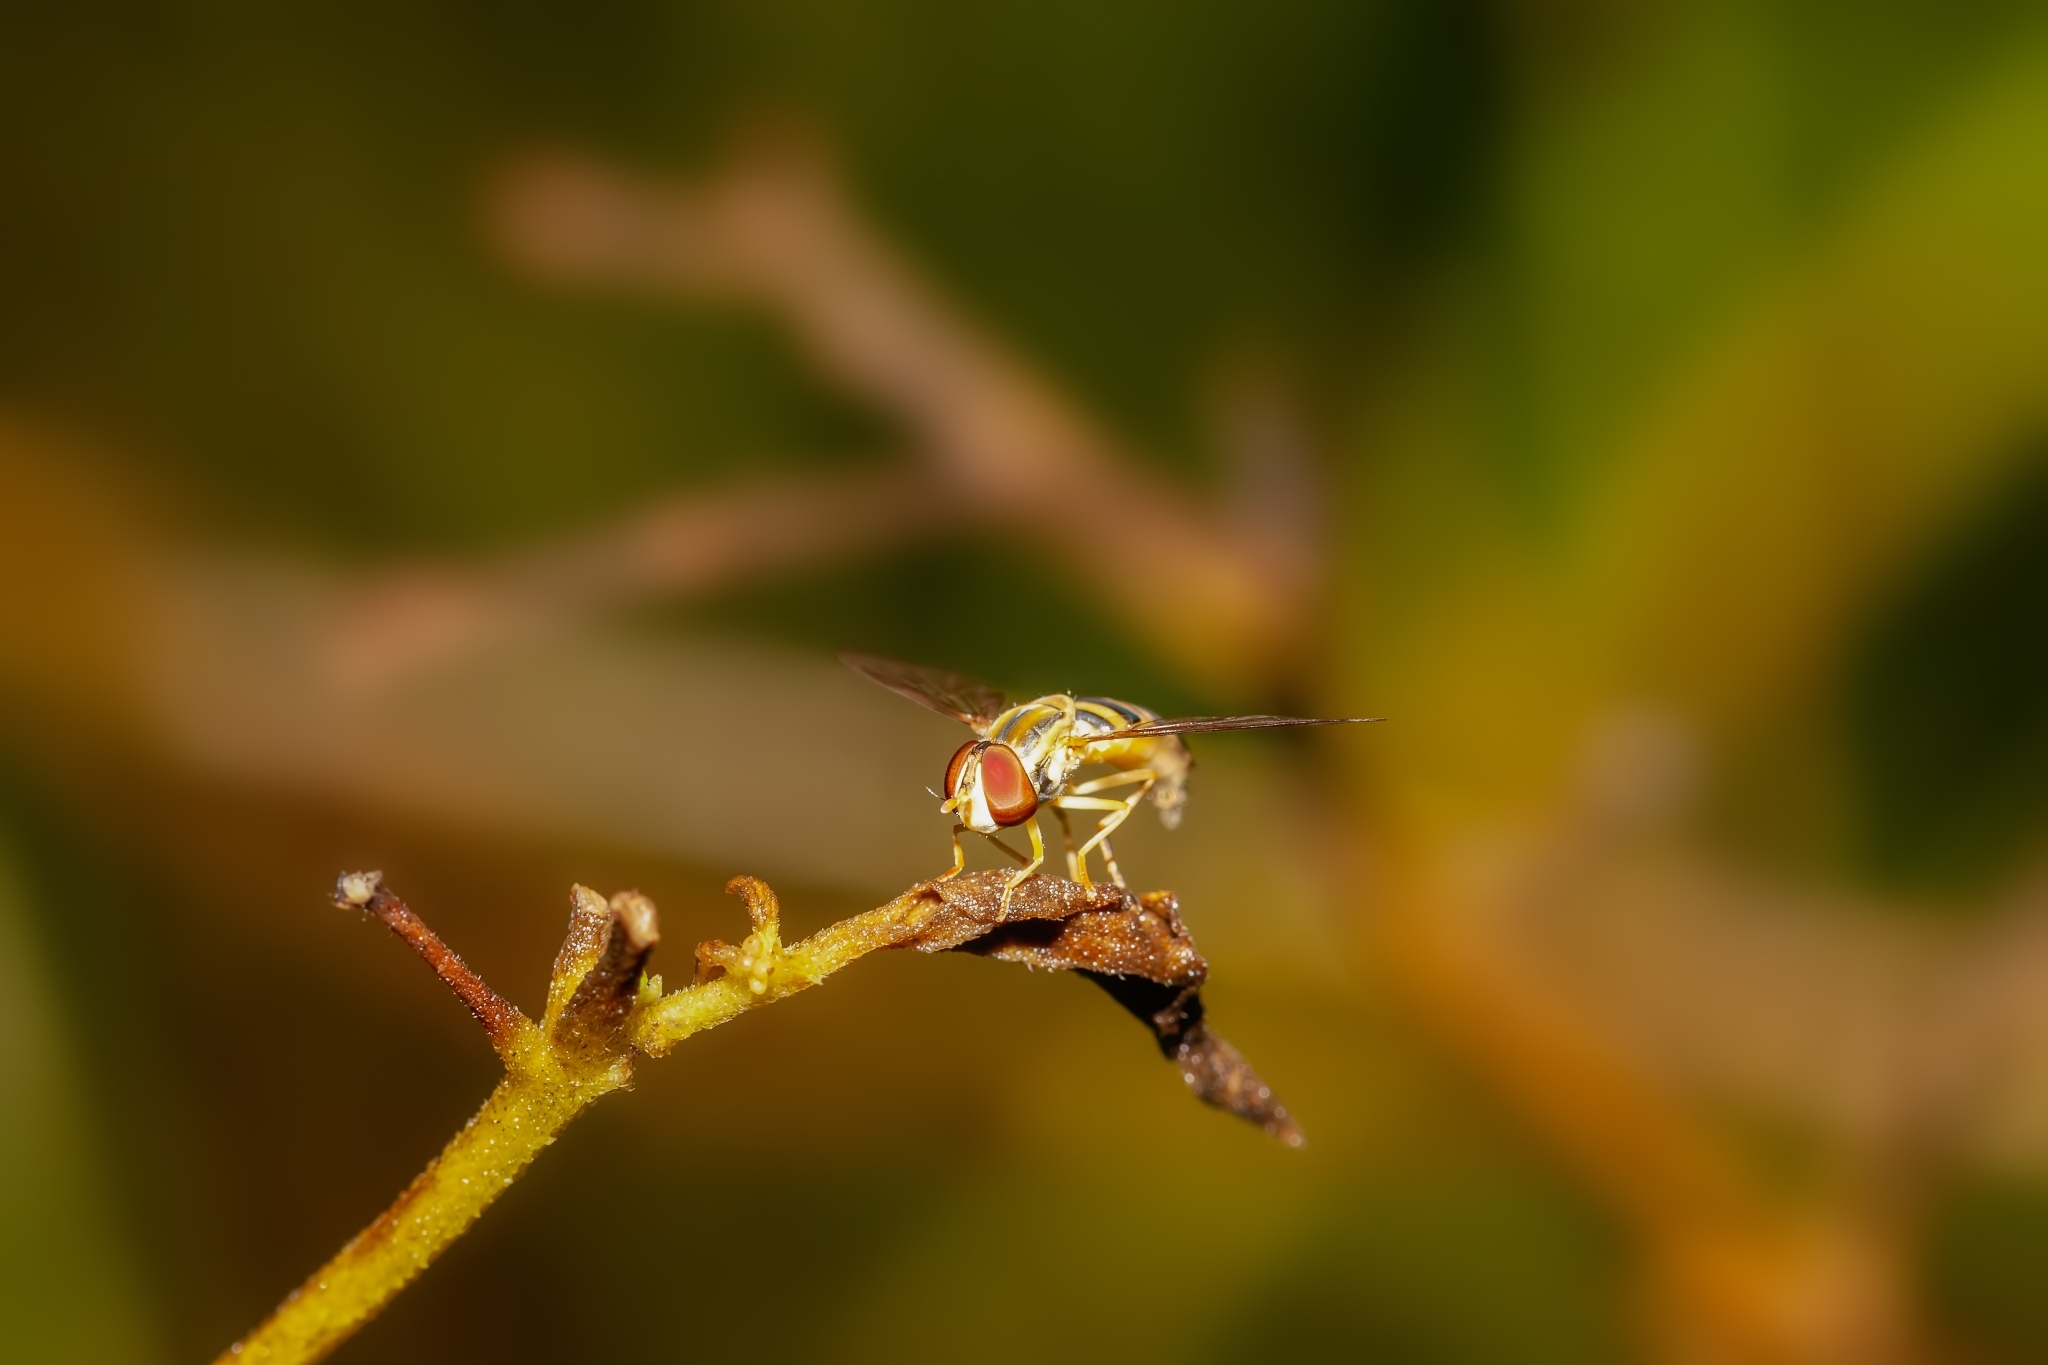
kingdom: Animalia
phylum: Arthropoda
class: Insecta
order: Diptera
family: Syrphidae
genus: Toxomerus
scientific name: Toxomerus politus
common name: Maize calligrapher
